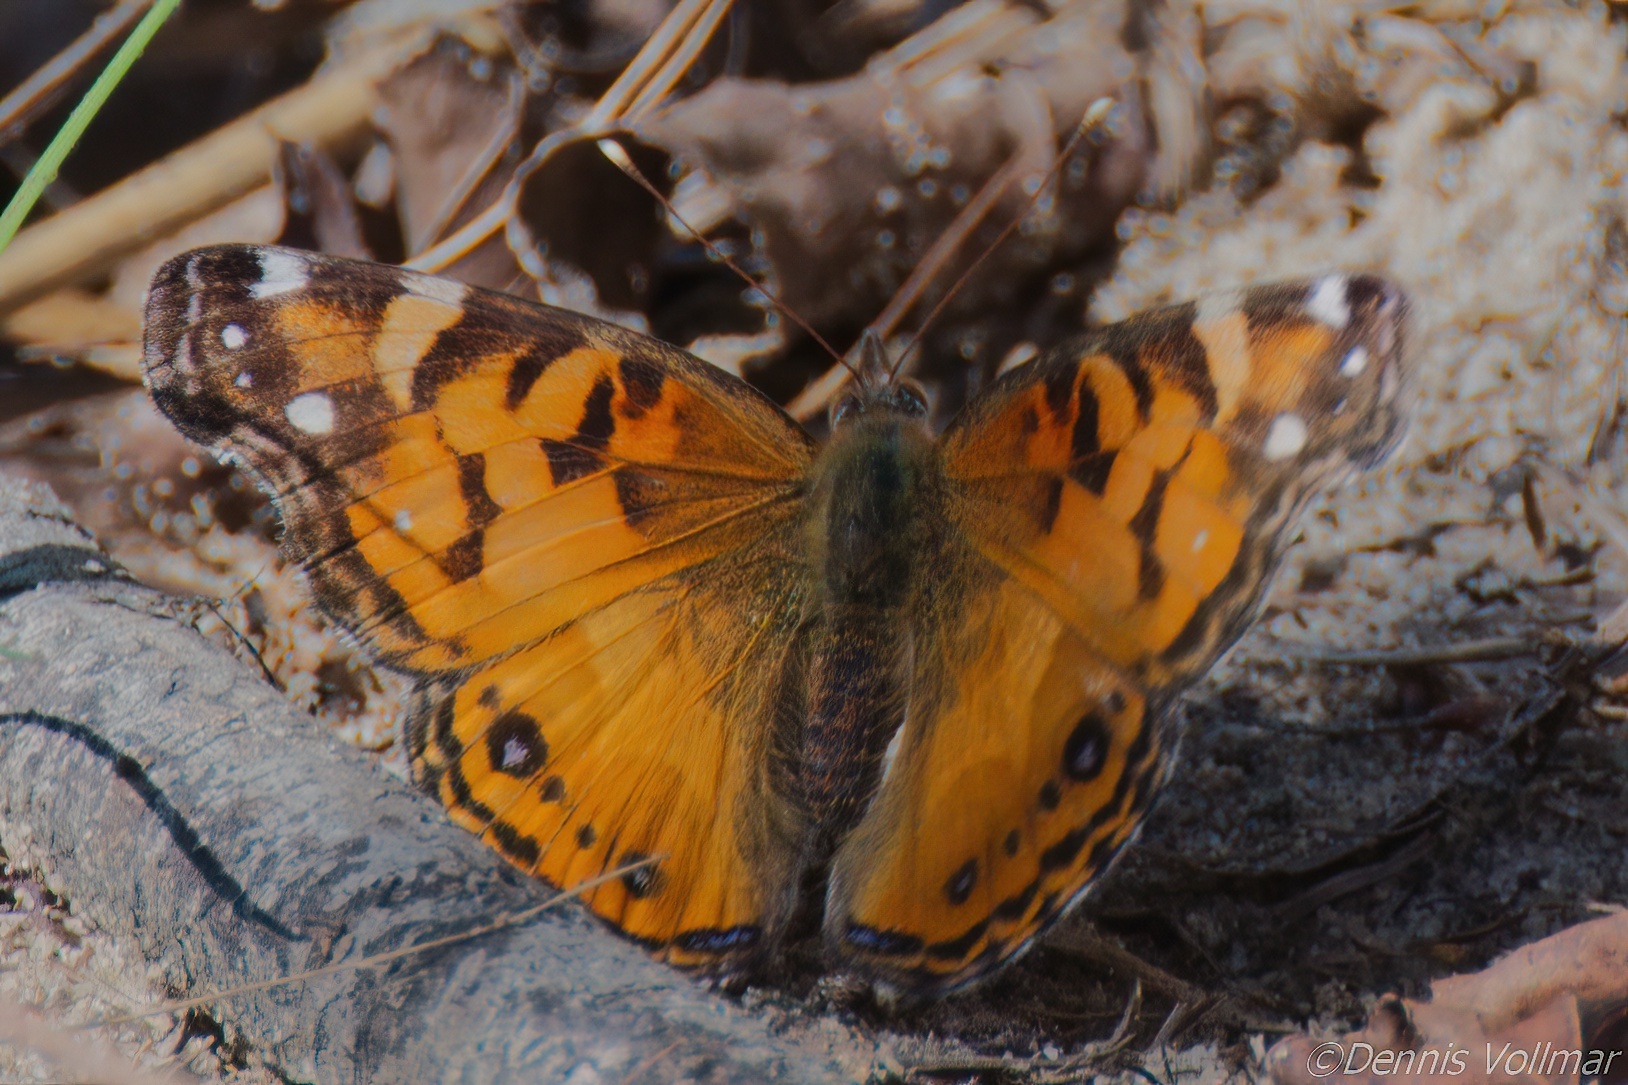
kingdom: Animalia
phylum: Arthropoda
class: Insecta
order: Lepidoptera
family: Nymphalidae
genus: Vanessa
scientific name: Vanessa virginiensis
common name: American lady
